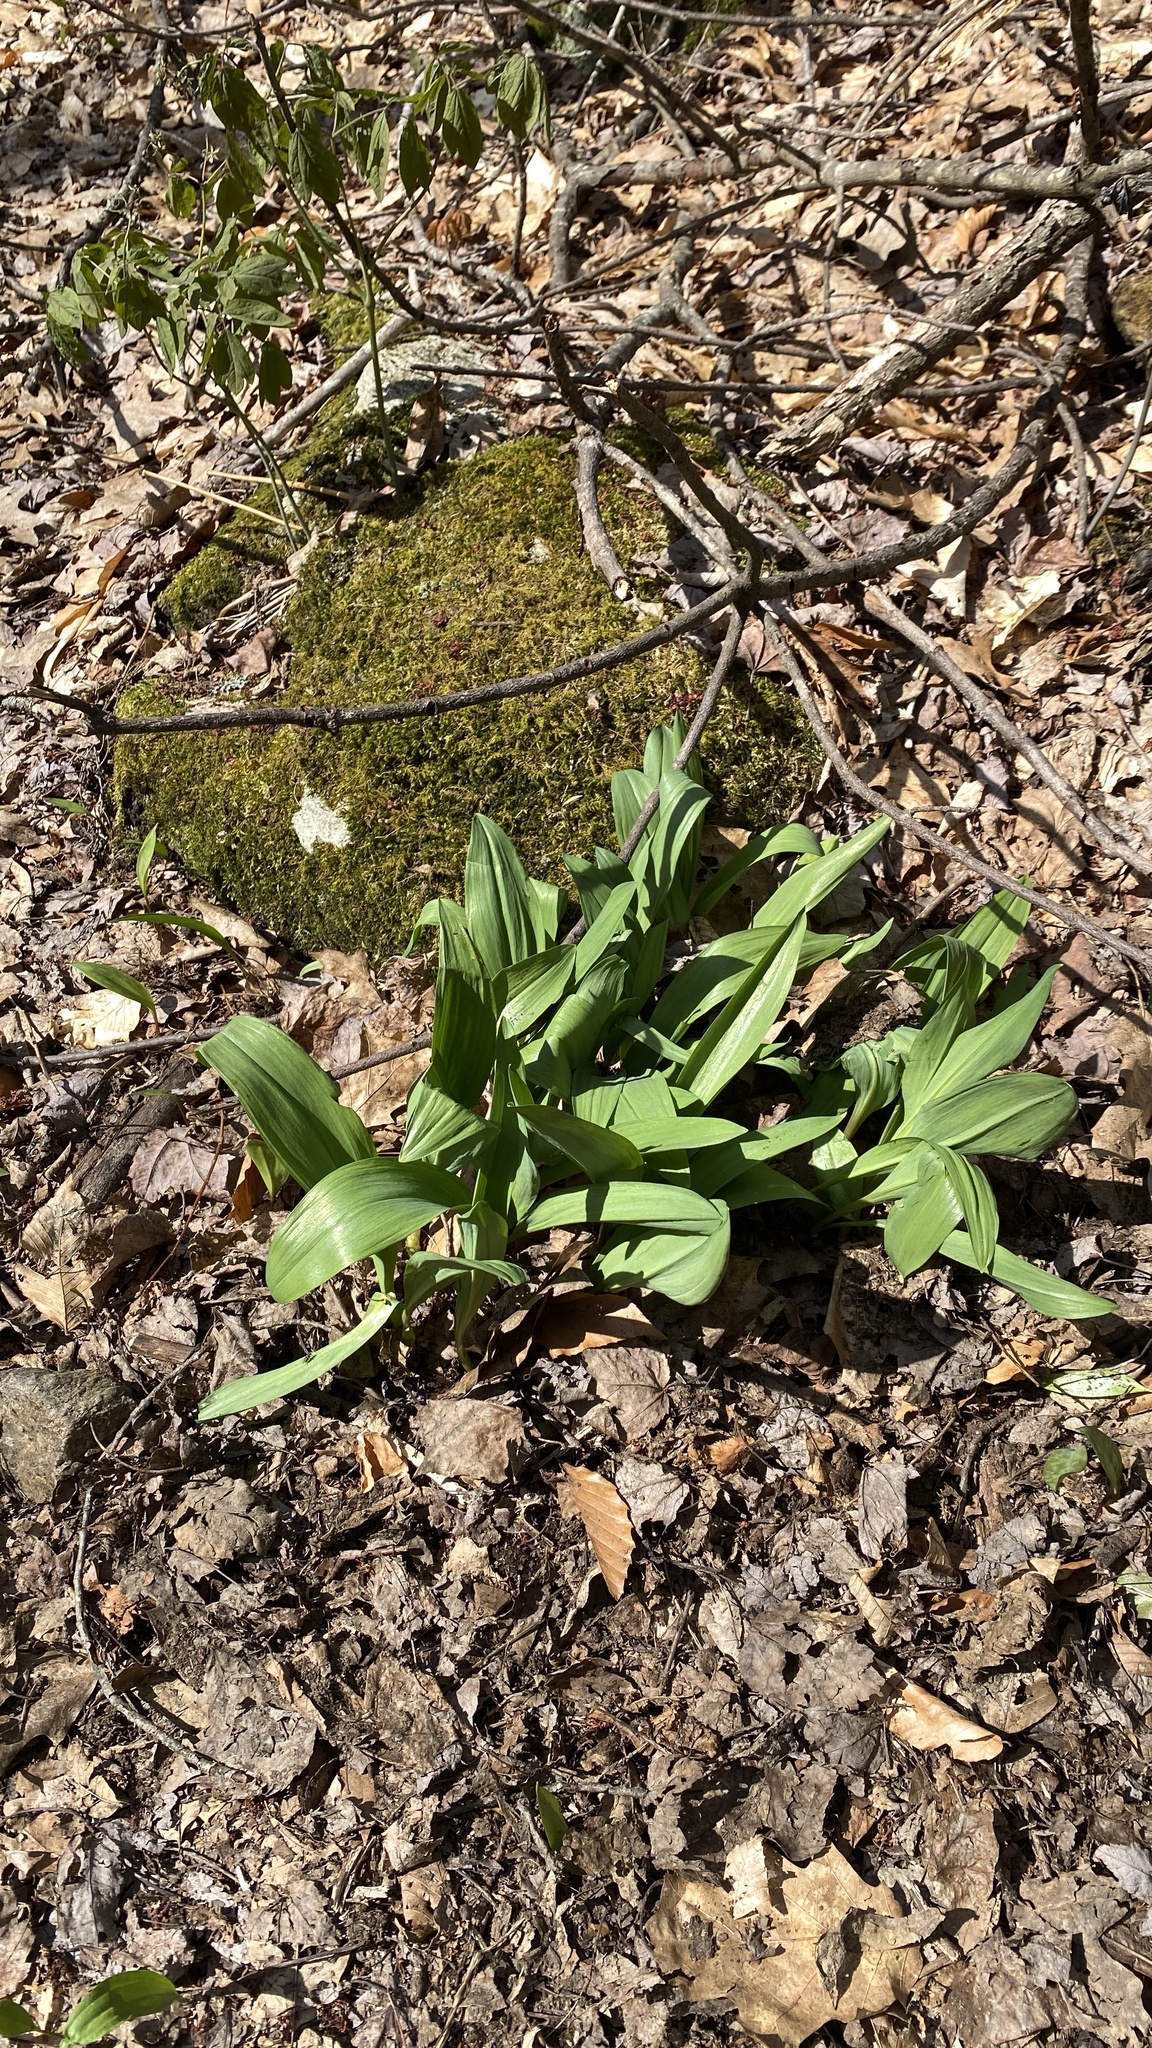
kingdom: Plantae
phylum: Tracheophyta
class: Liliopsida
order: Asparagales
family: Amaryllidaceae
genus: Allium
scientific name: Allium tricoccum
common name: Ramp
